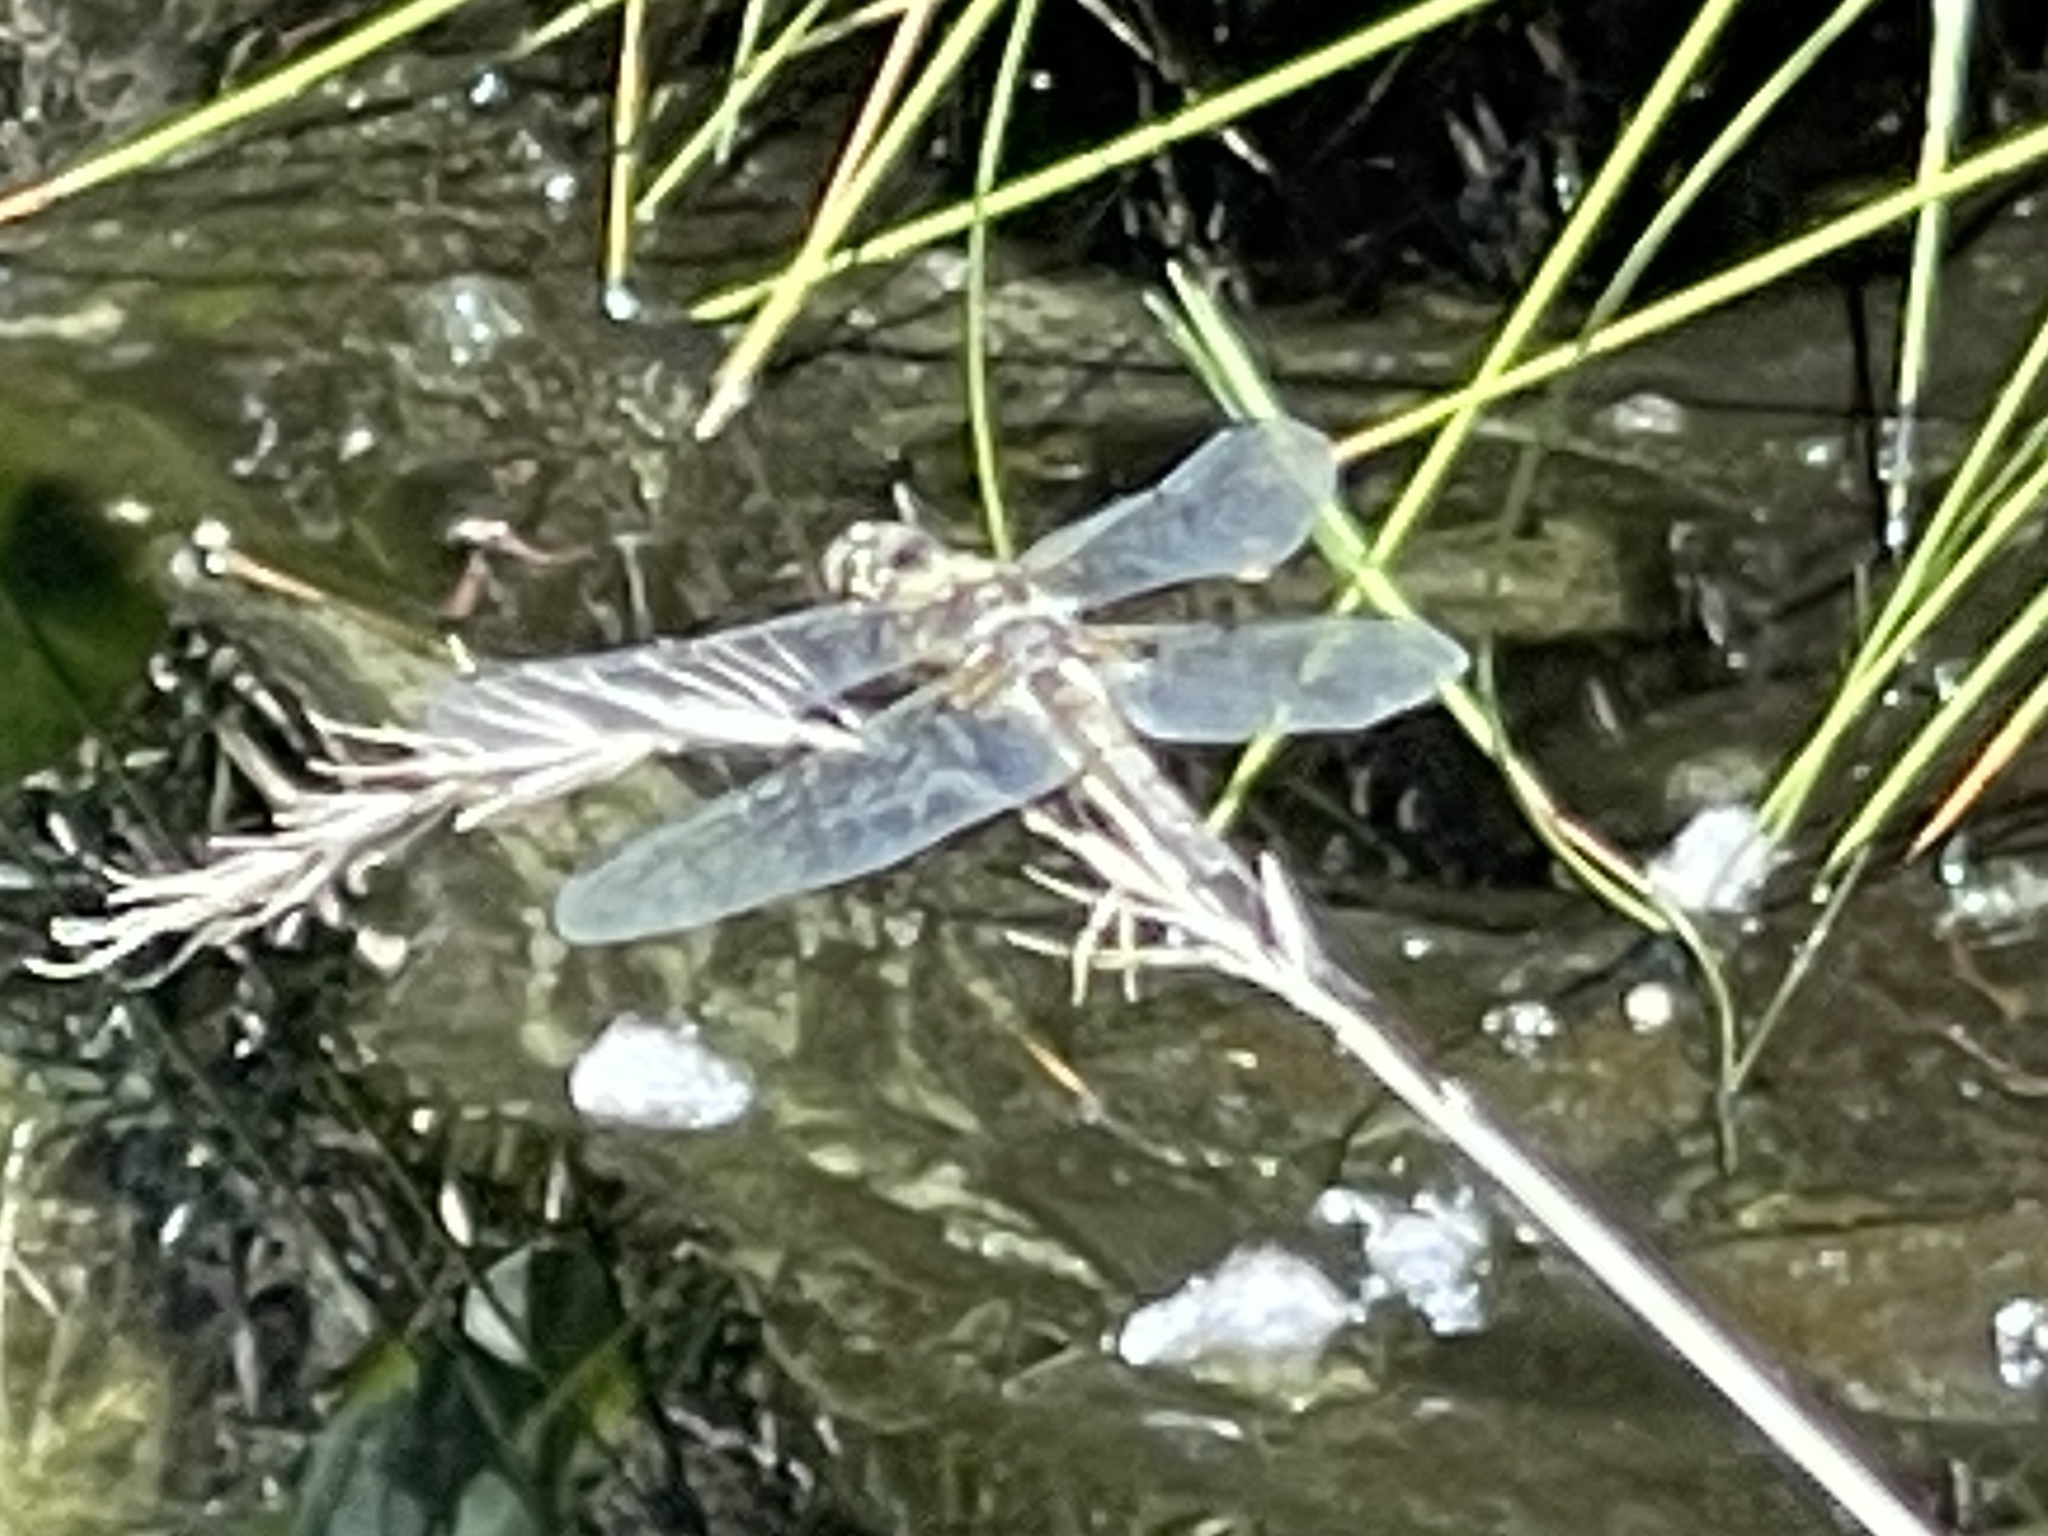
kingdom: Animalia
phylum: Arthropoda
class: Insecta
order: Odonata
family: Libellulidae
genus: Libellula
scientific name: Libellula quadrimaculata
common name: Four-spotted chaser
